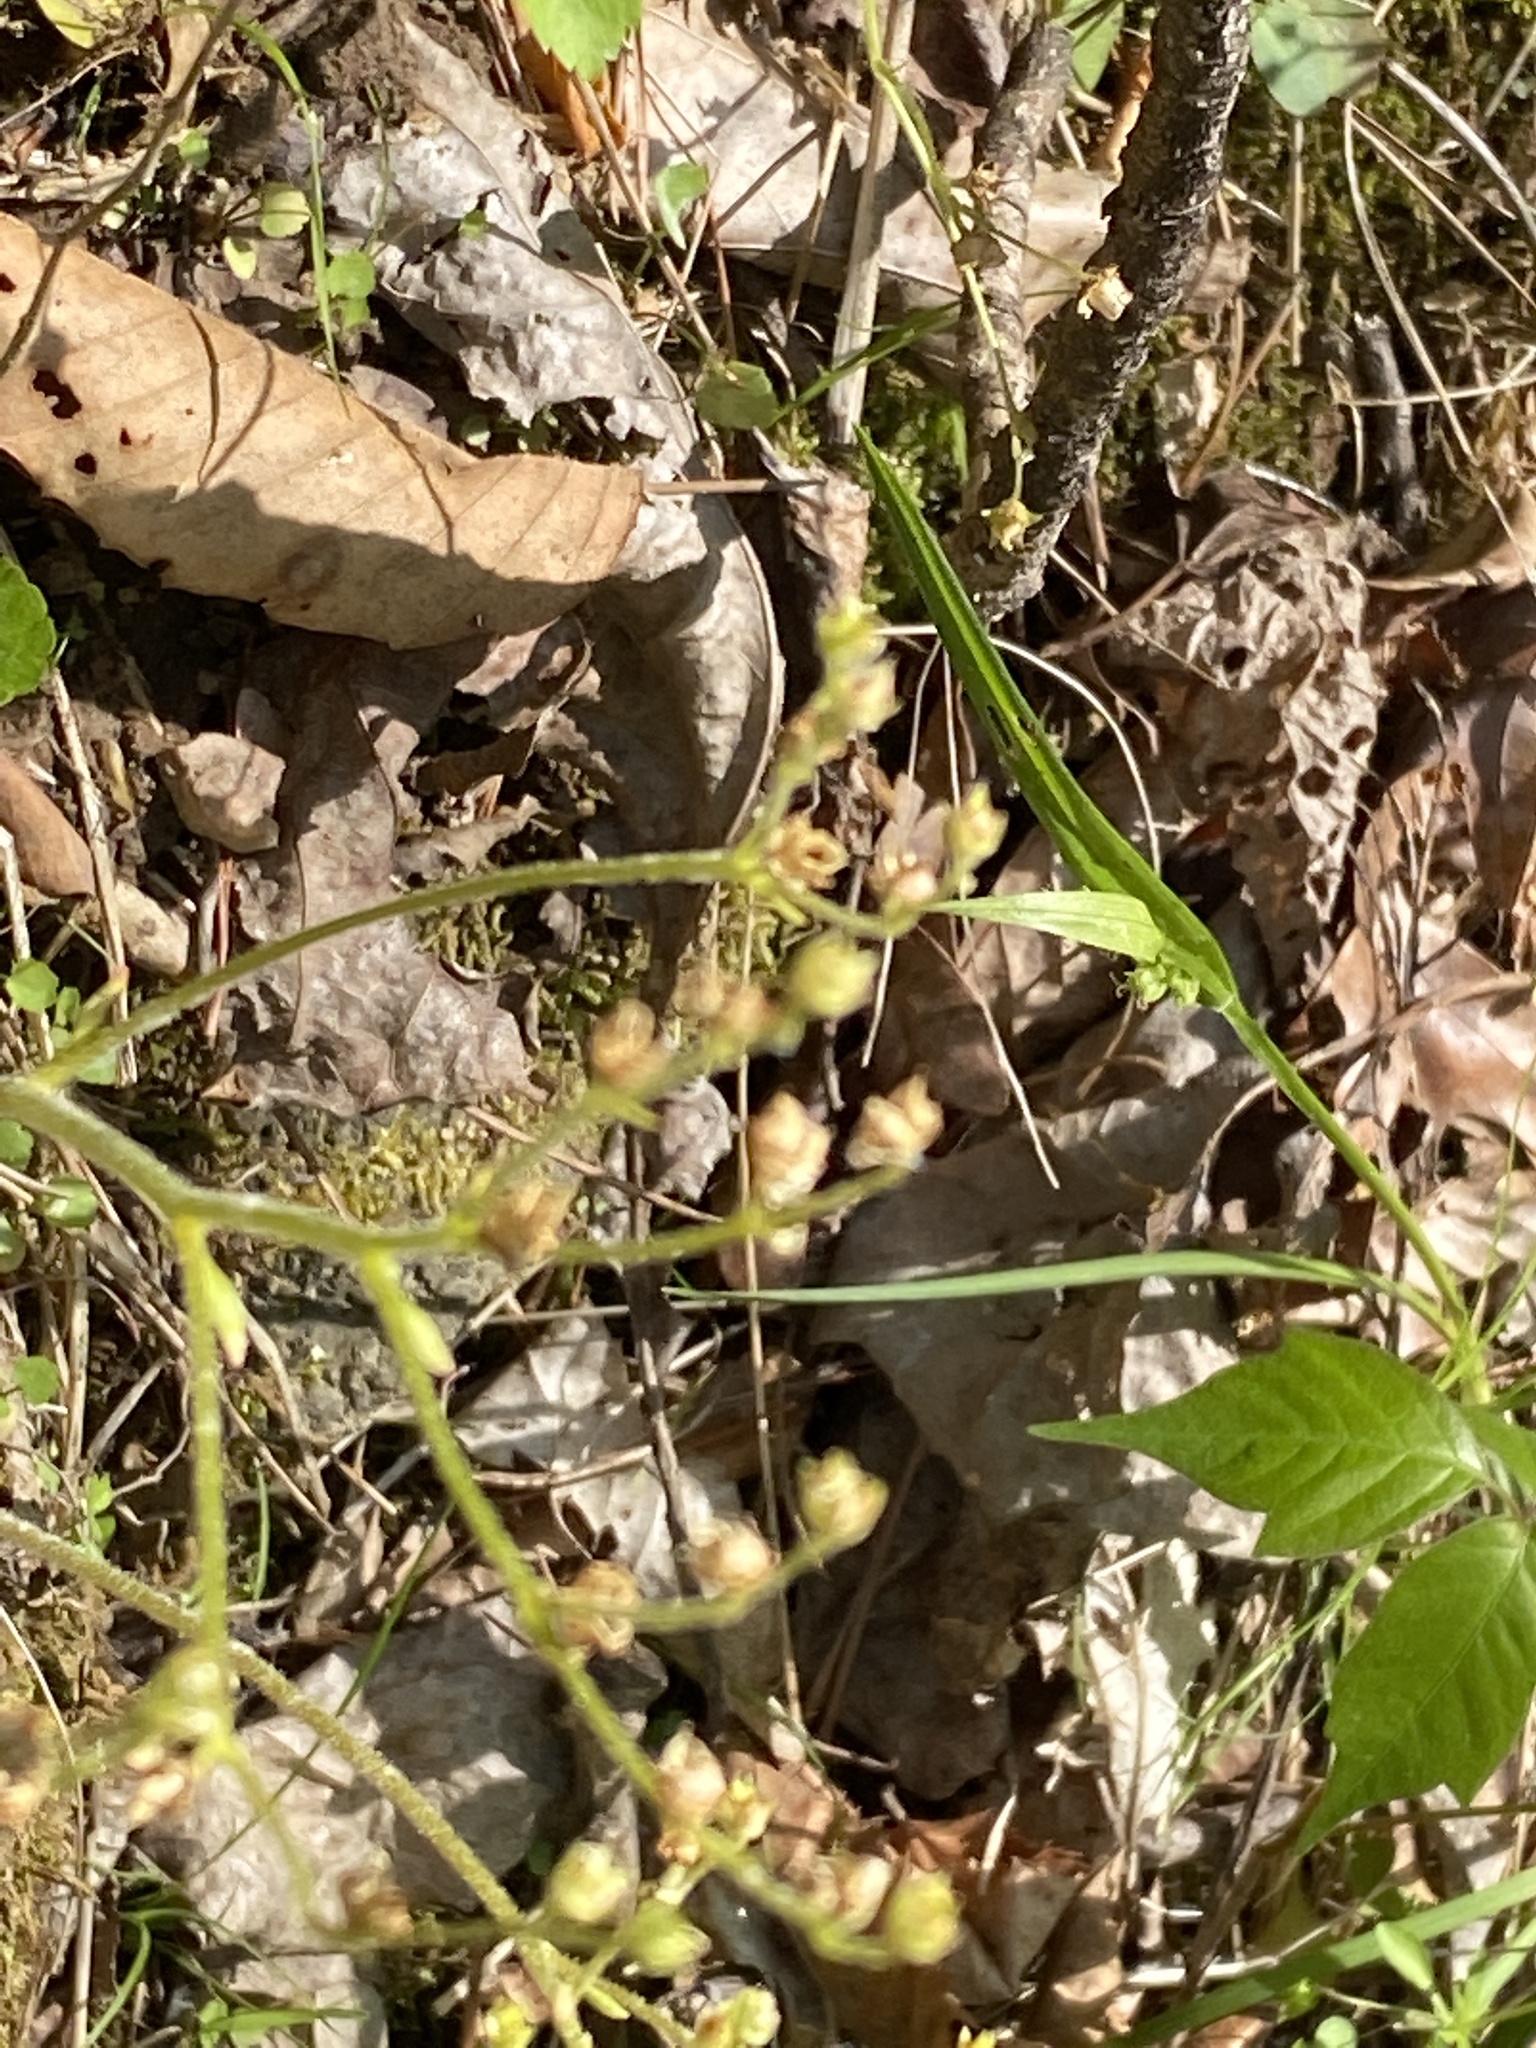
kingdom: Plantae
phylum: Tracheophyta
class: Magnoliopsida
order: Saxifragales
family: Saxifragaceae
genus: Micranthes
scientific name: Micranthes virginiensis
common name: Early saxifrage
